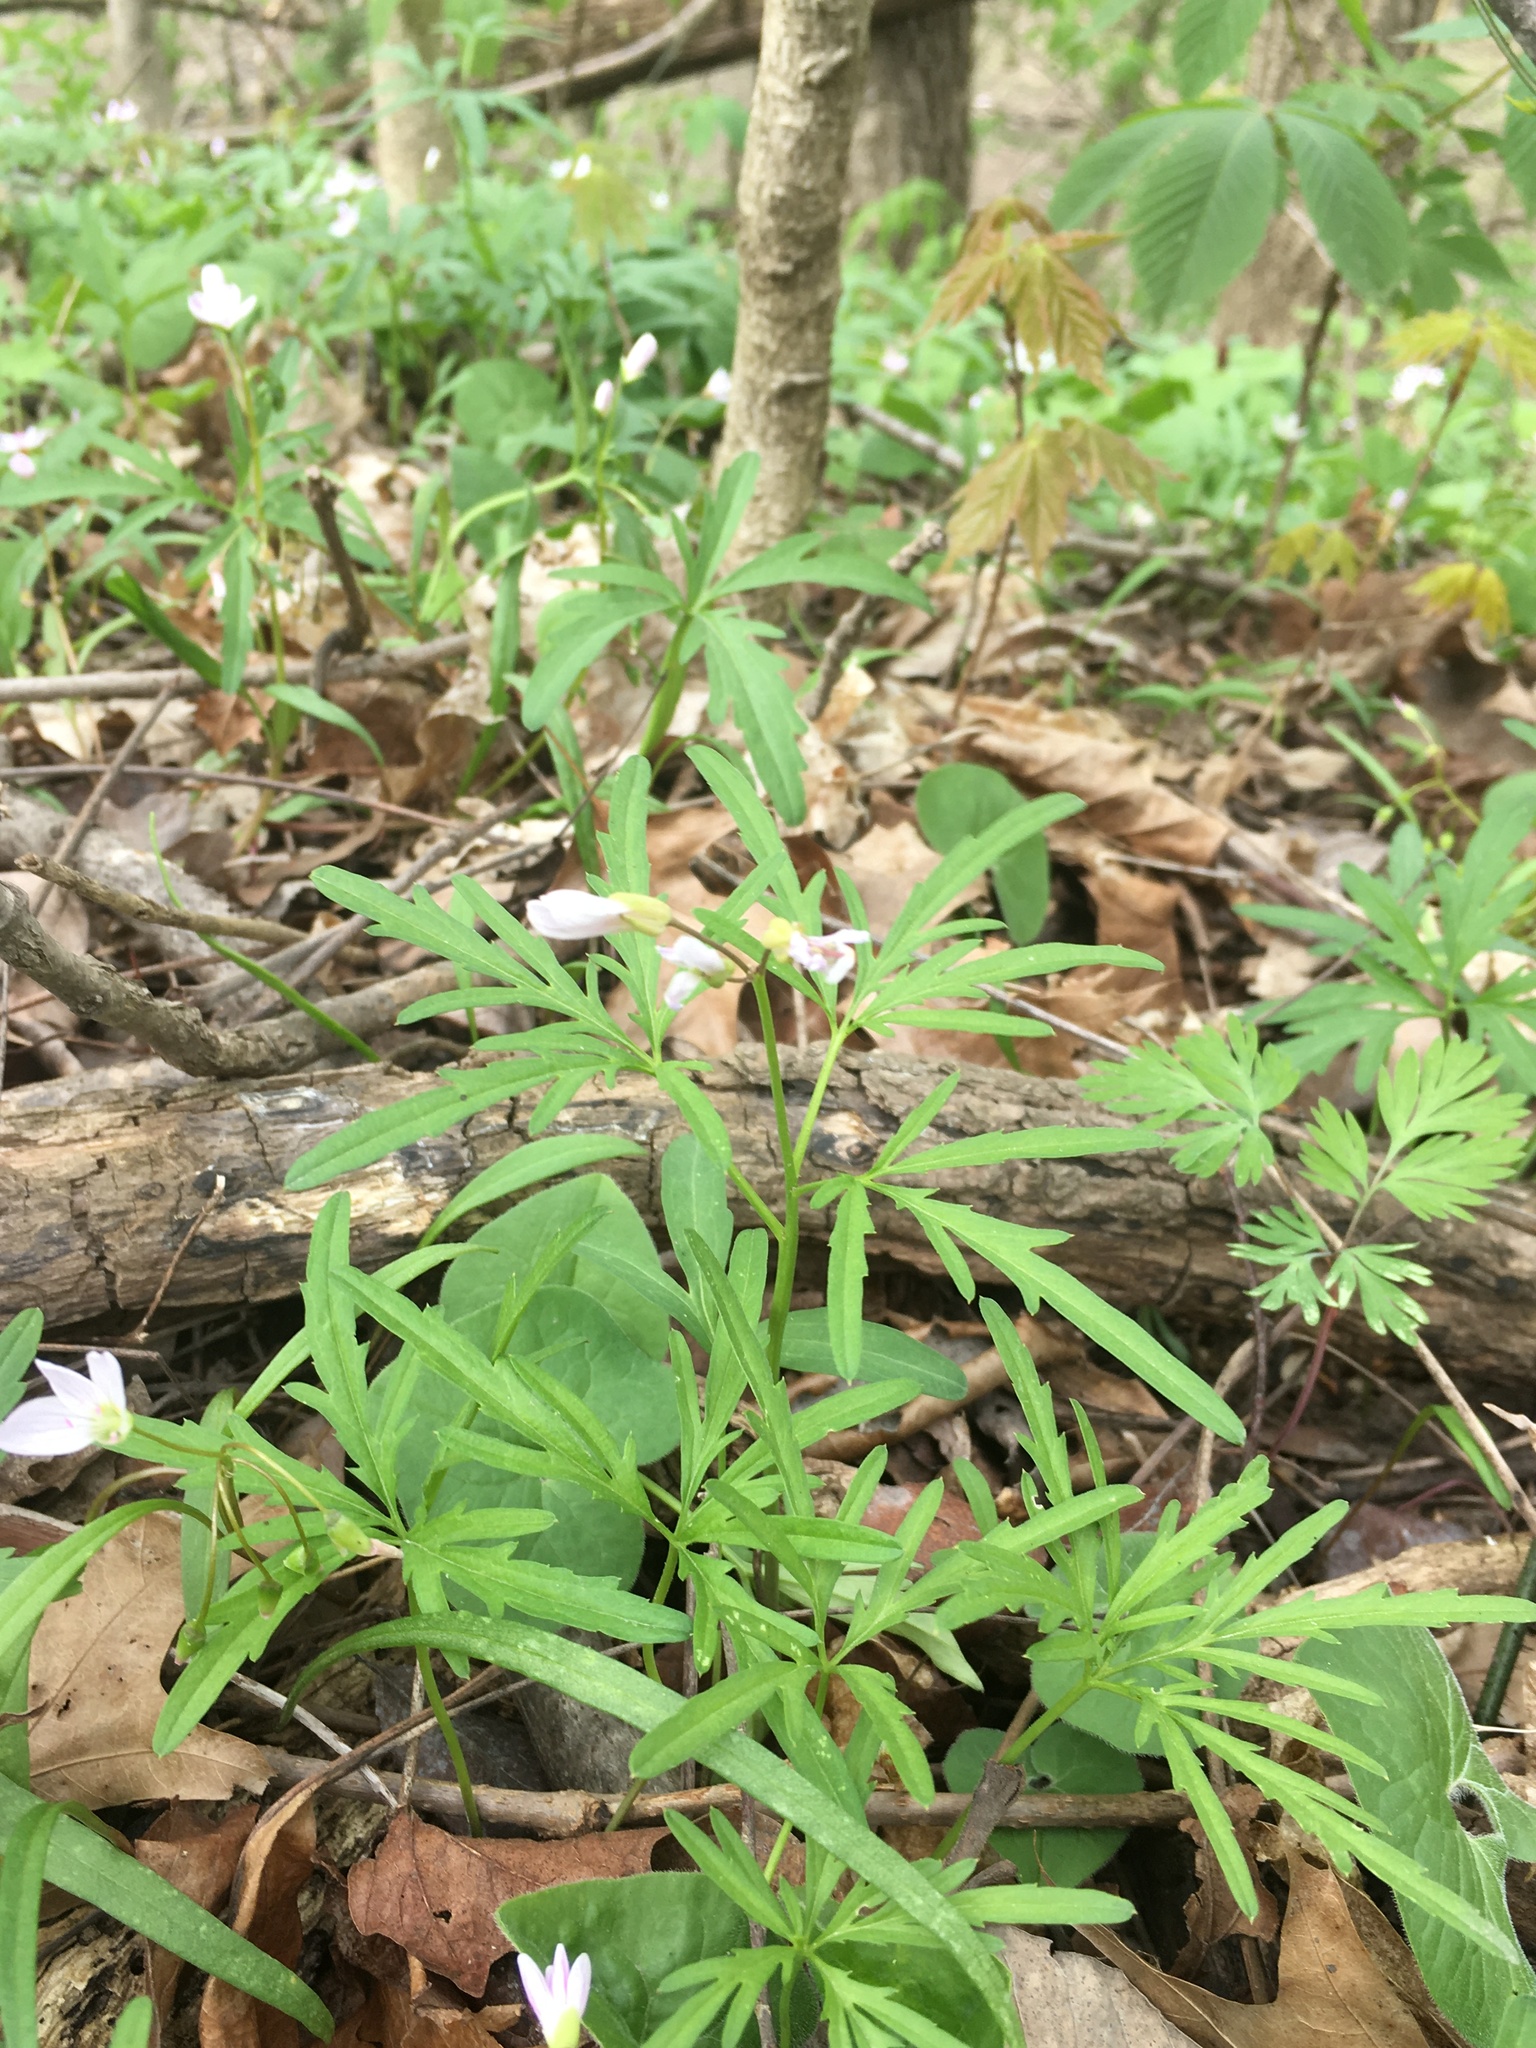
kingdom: Plantae
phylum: Tracheophyta
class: Magnoliopsida
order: Brassicales
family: Brassicaceae
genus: Cardamine
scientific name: Cardamine concatenata
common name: Cut-leaf toothcup
